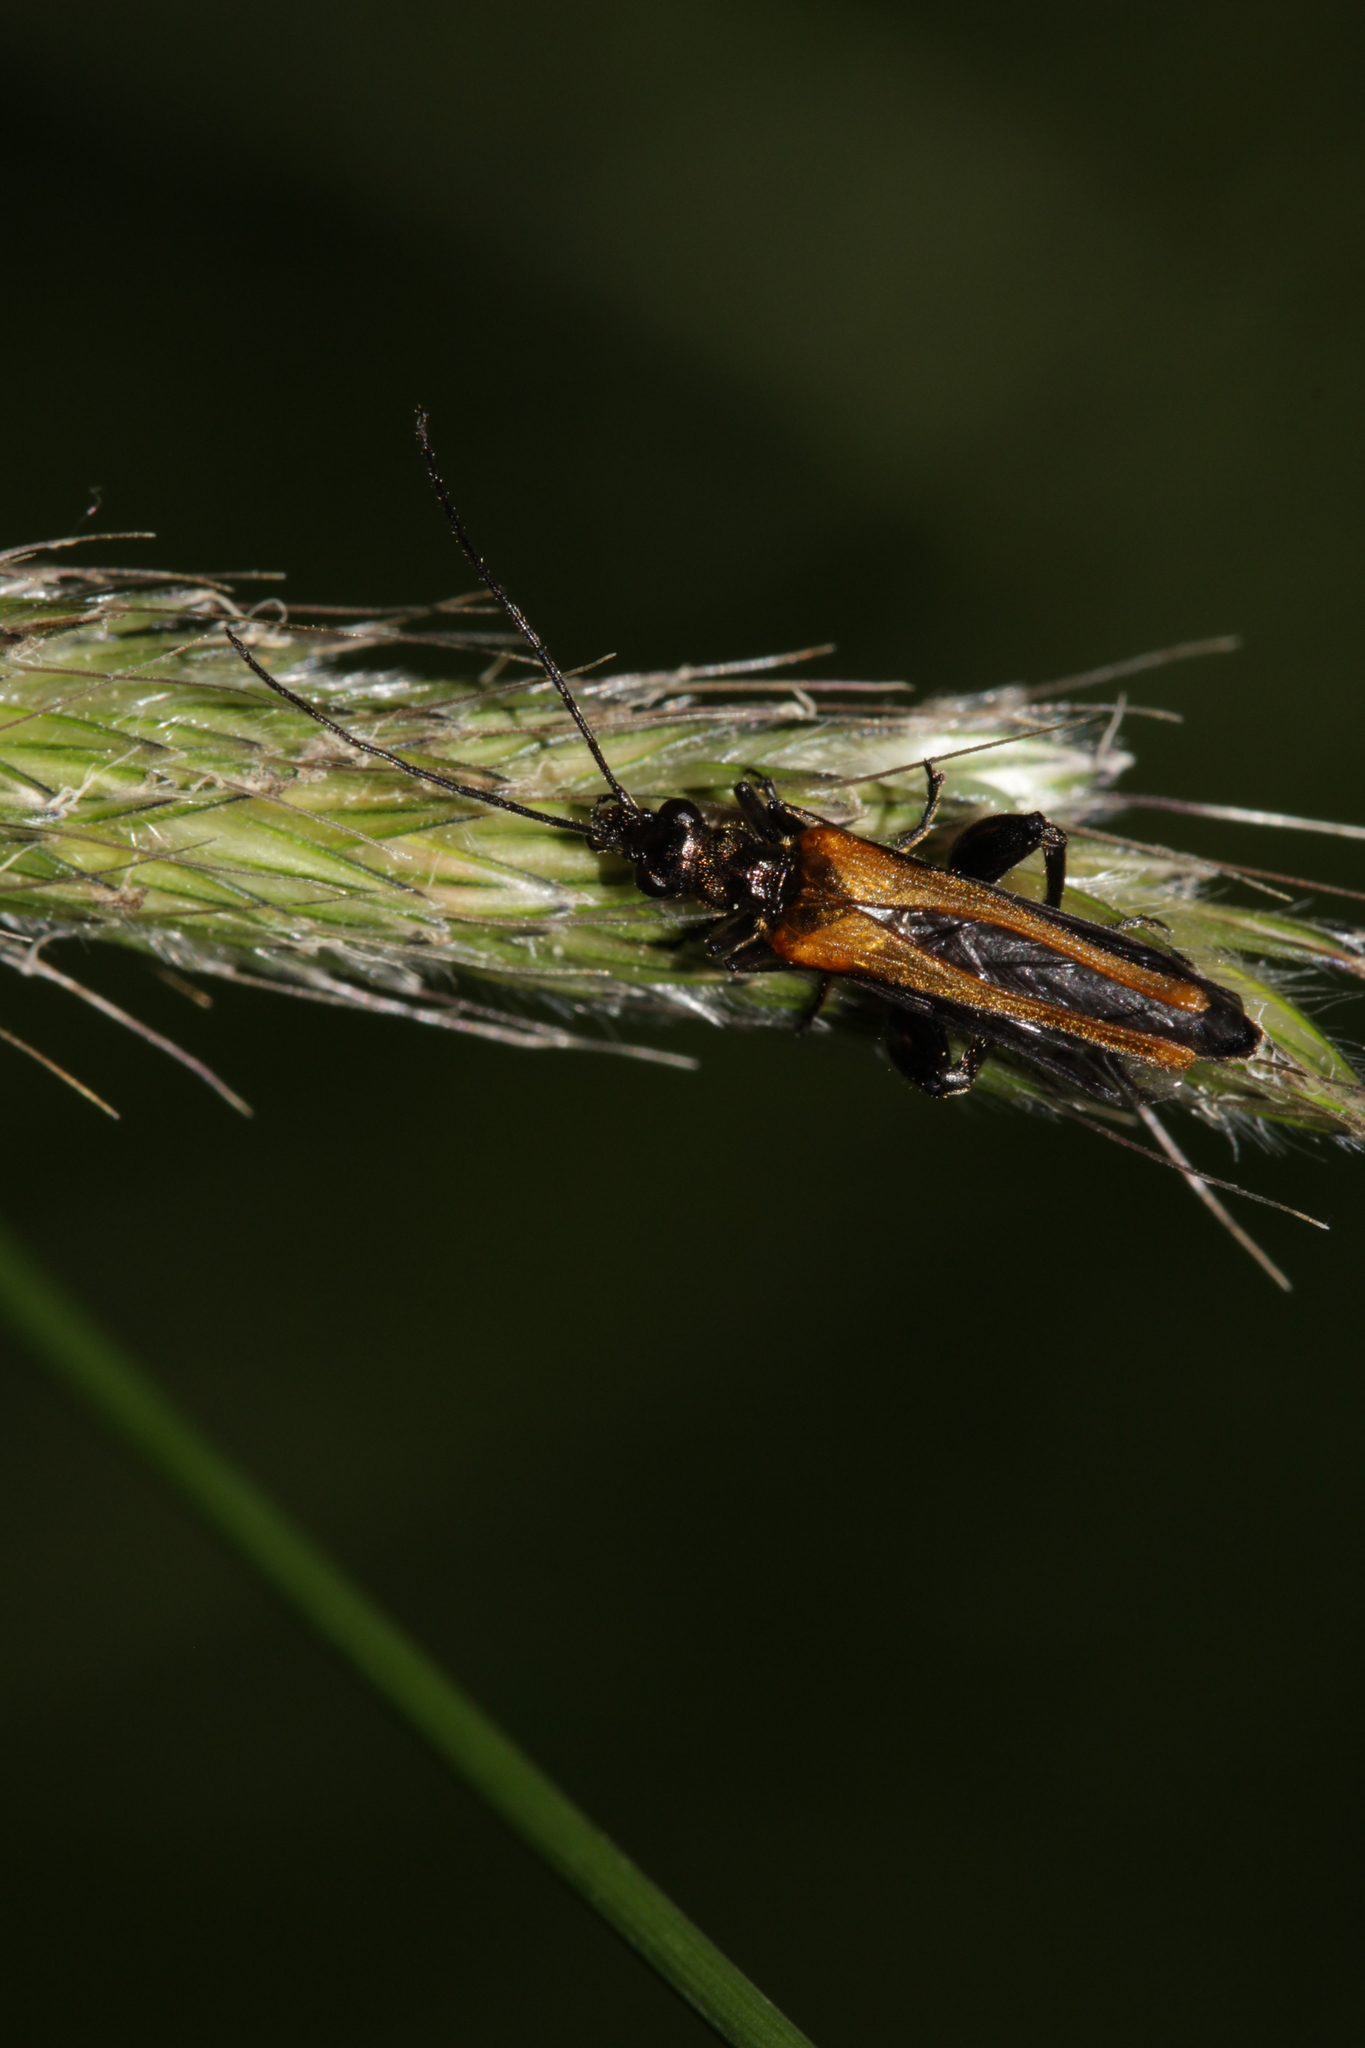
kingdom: Animalia
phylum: Arthropoda
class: Insecta
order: Coleoptera
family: Oedemeridae
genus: Oedemera
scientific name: Oedemera femorata
